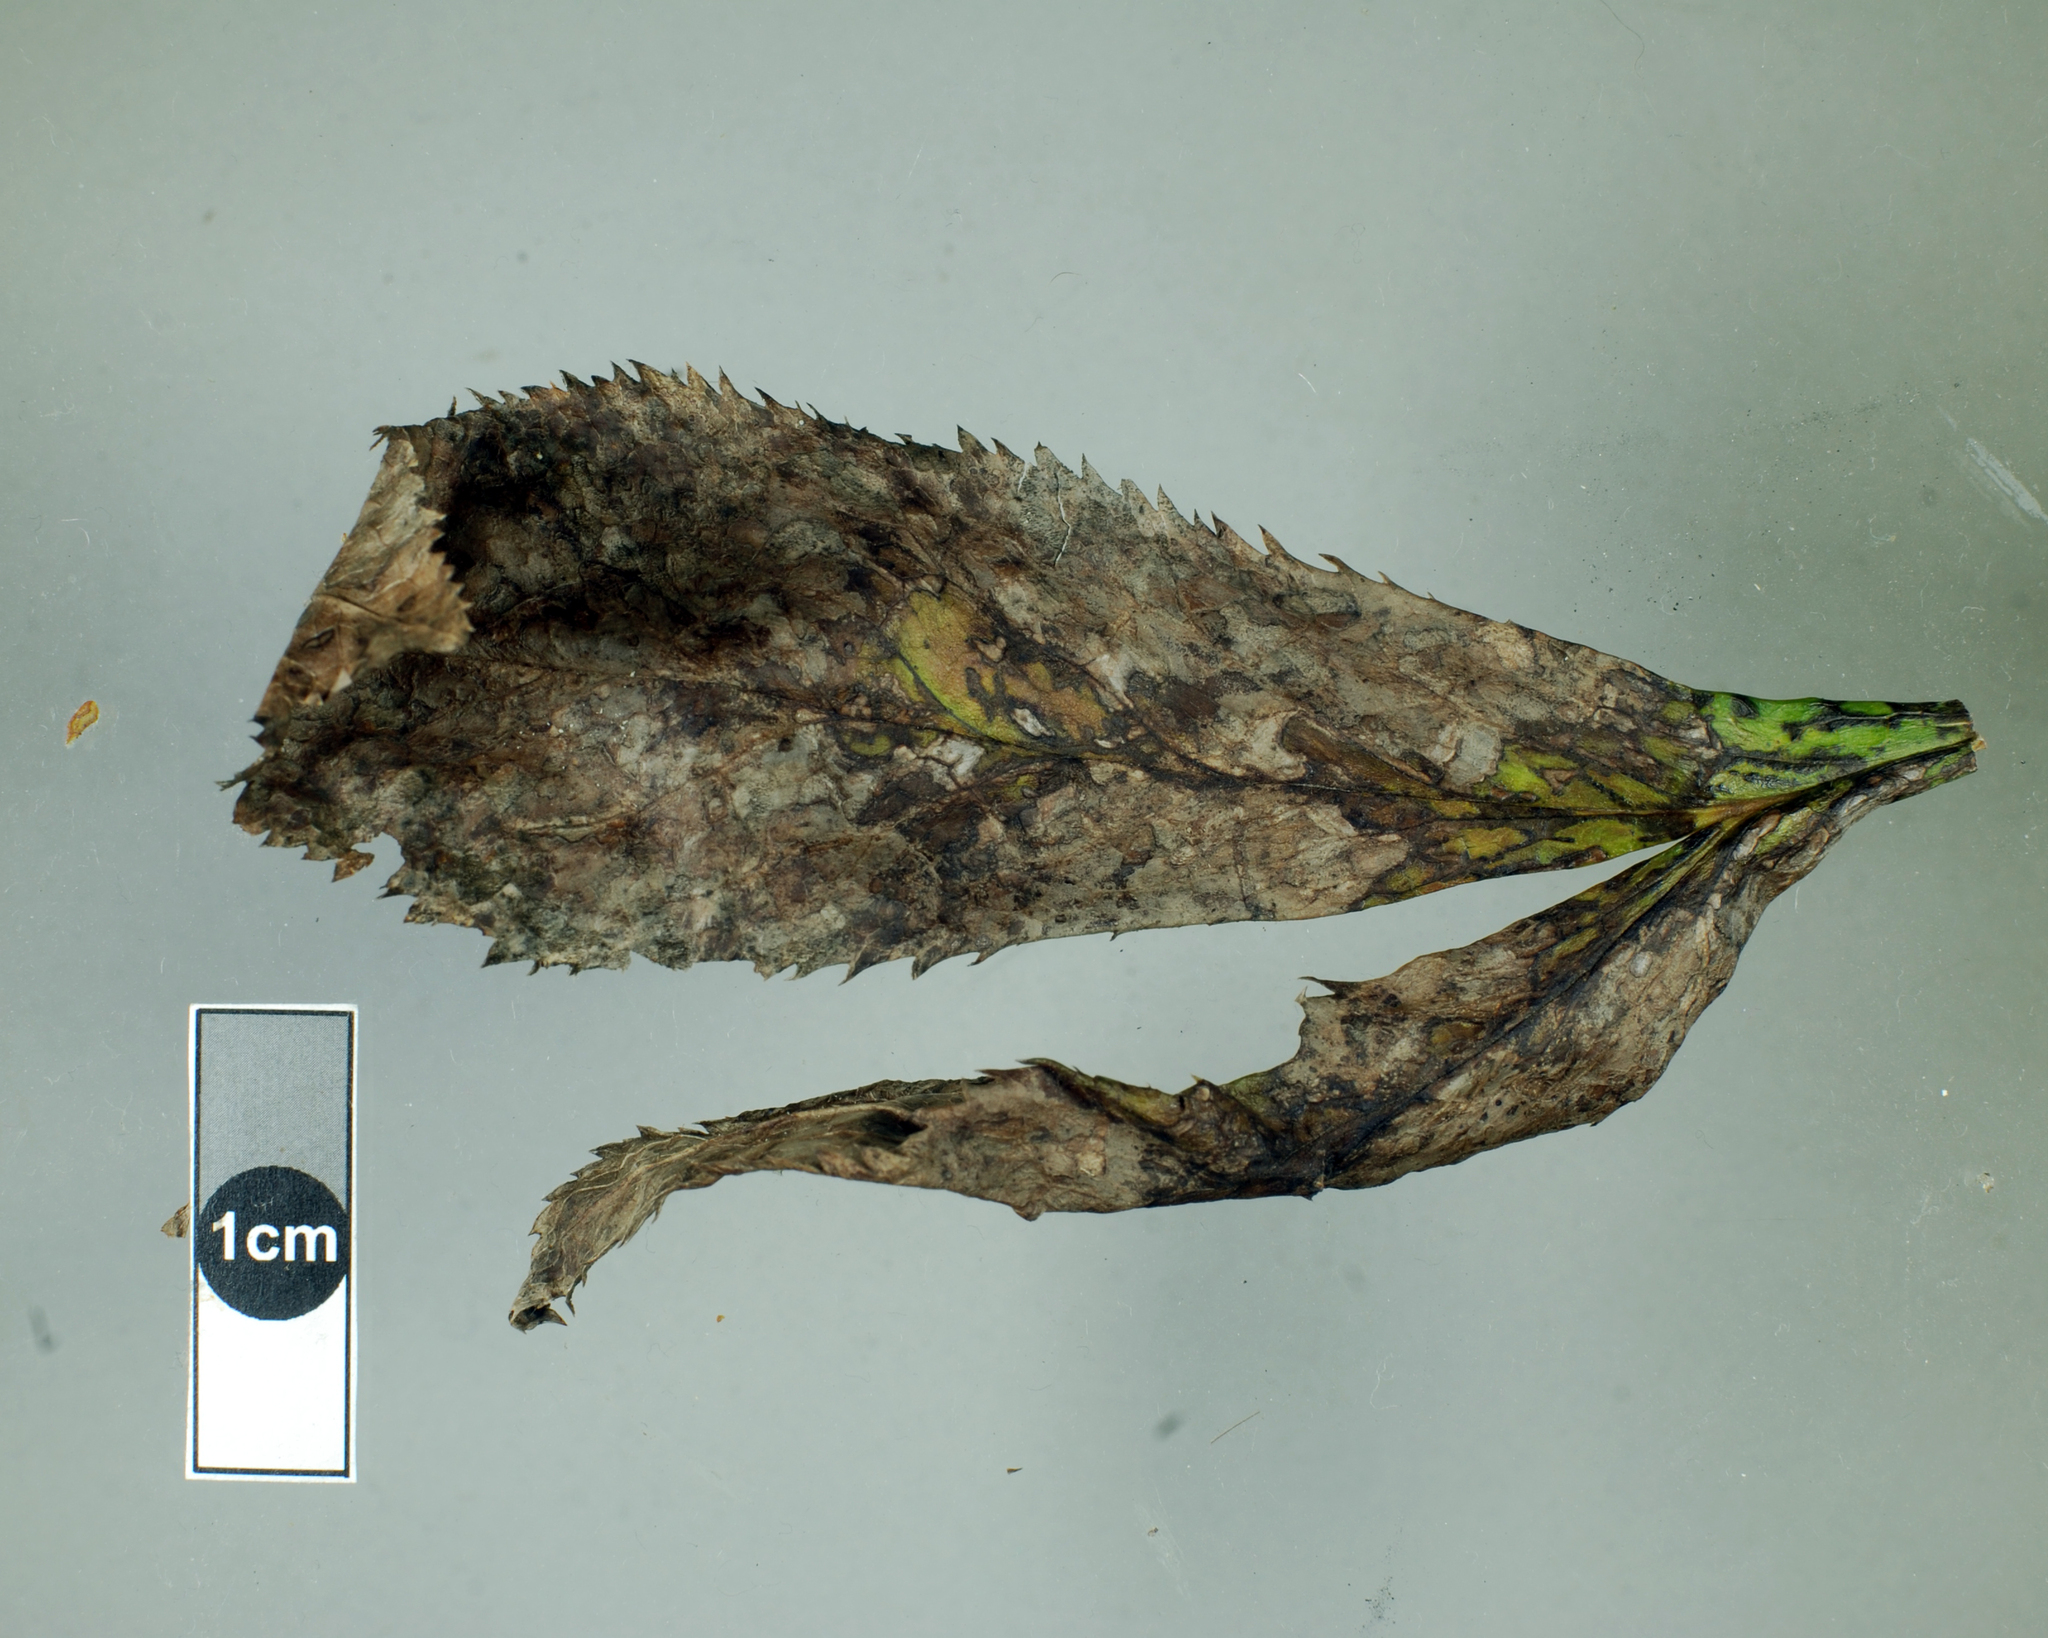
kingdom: Fungi
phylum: Ascomycota
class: Dothideomycetes
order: Pleosporales
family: Didymellaceae
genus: Microsphaeropsis
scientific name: Microsphaeropsis hellebori
